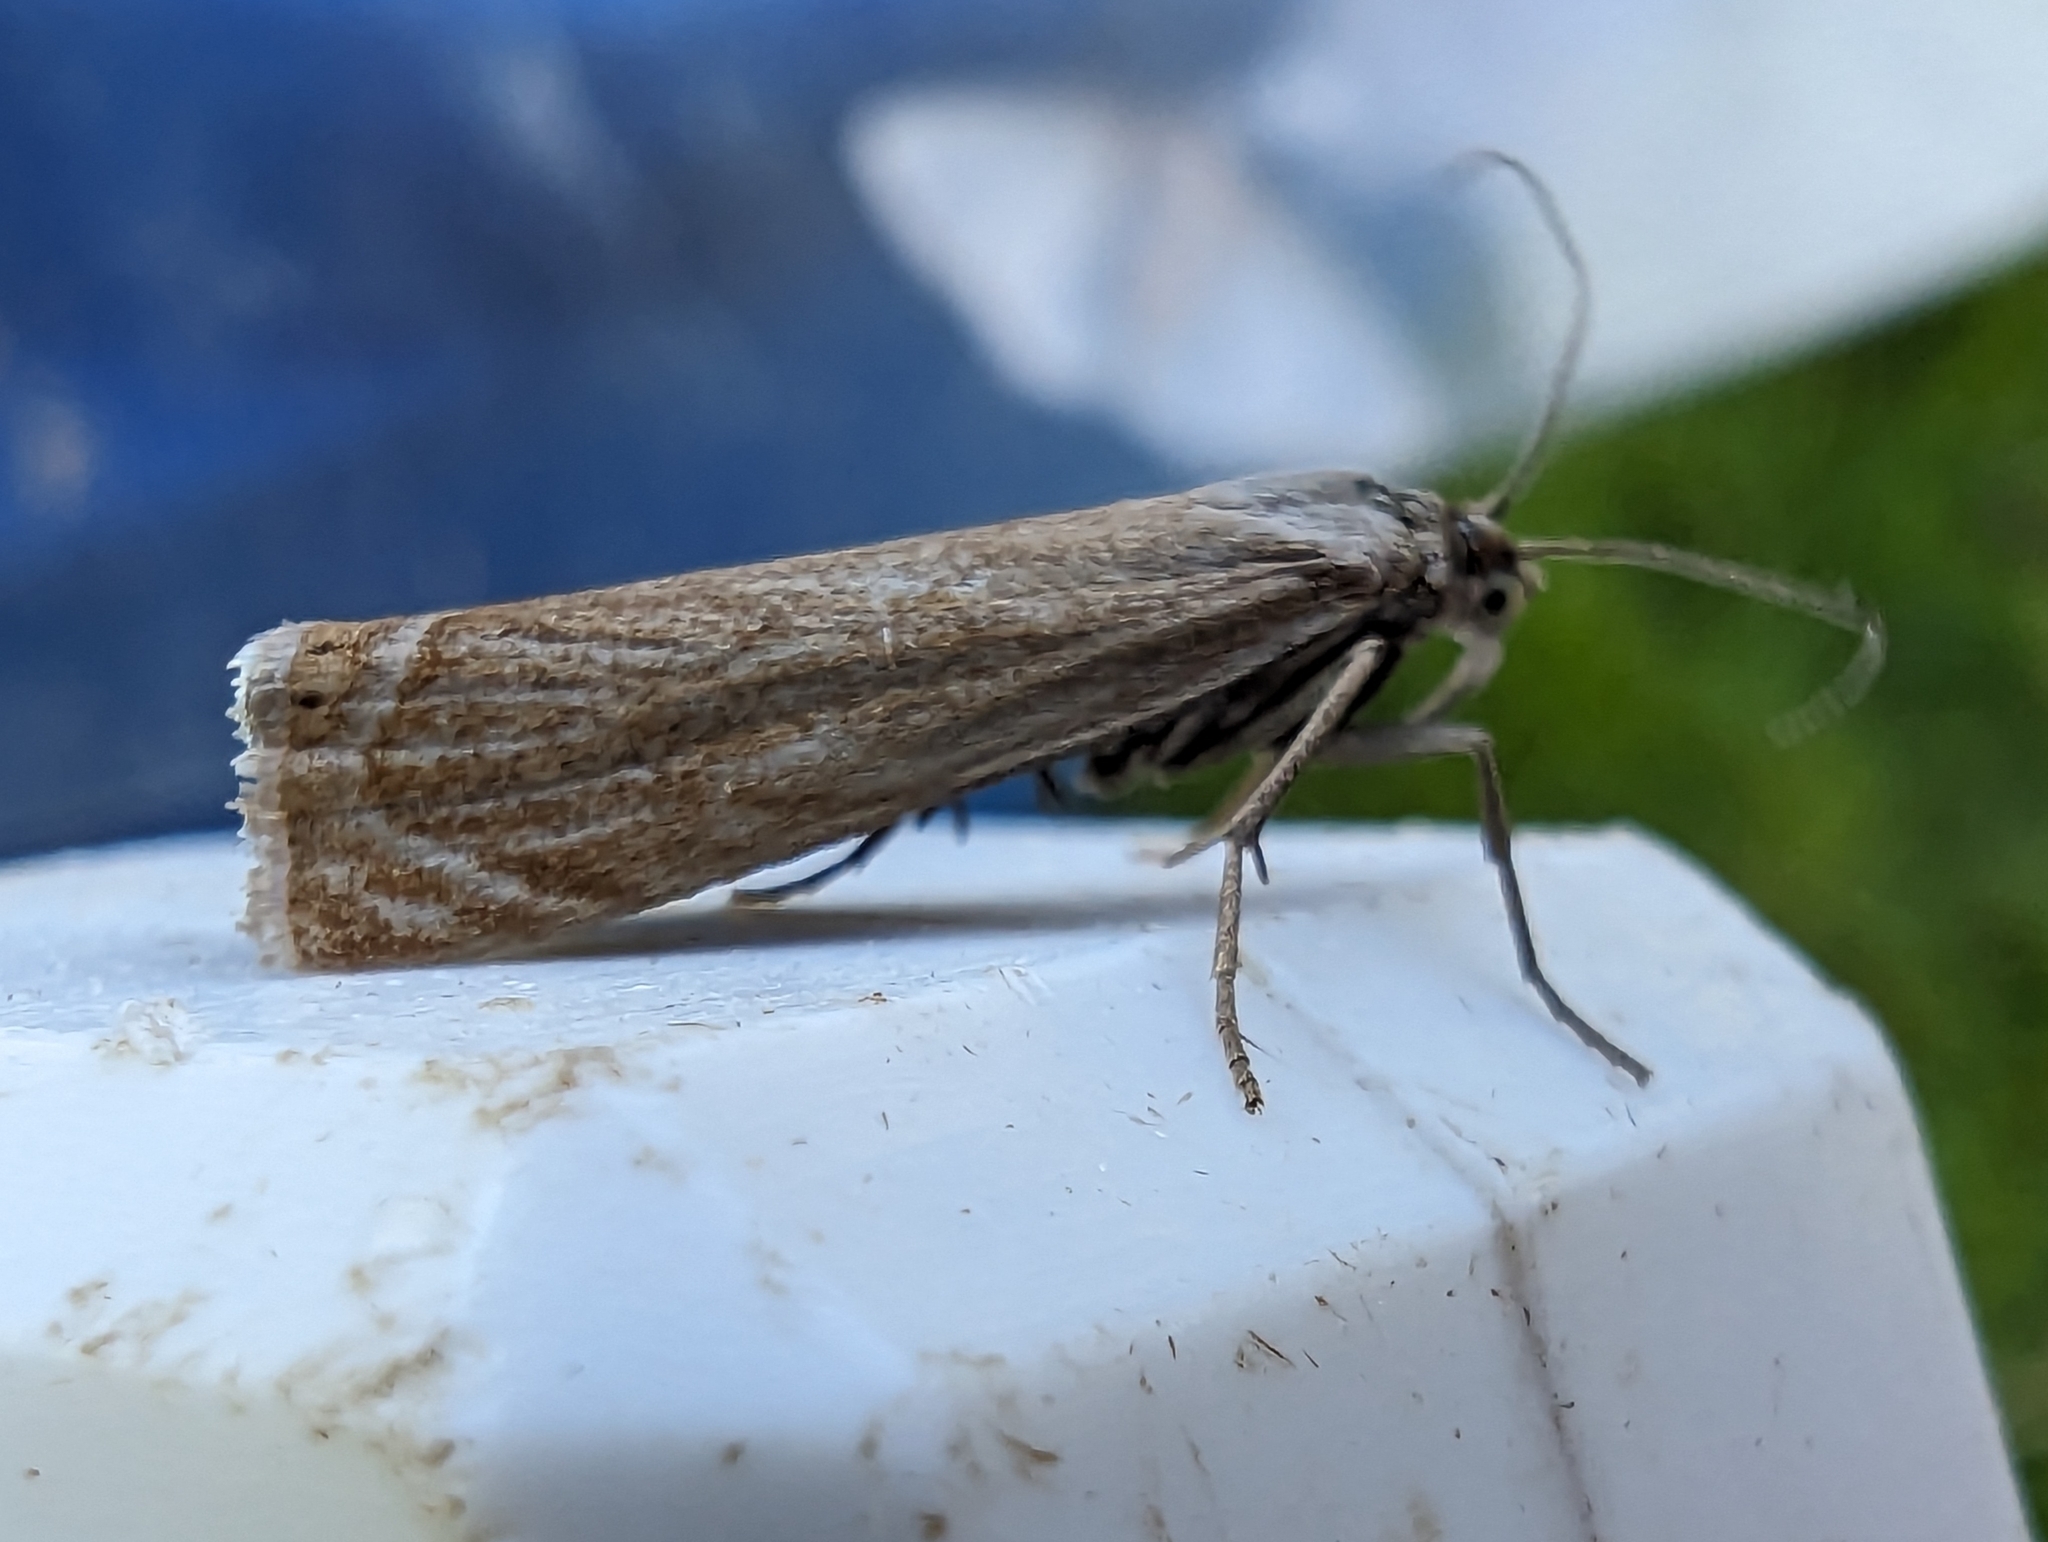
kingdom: Animalia
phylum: Arthropoda
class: Insecta
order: Lepidoptera
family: Crambidae
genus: Chrysoteuchia
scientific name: Chrysoteuchia culmella
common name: Garden grass-veneer
